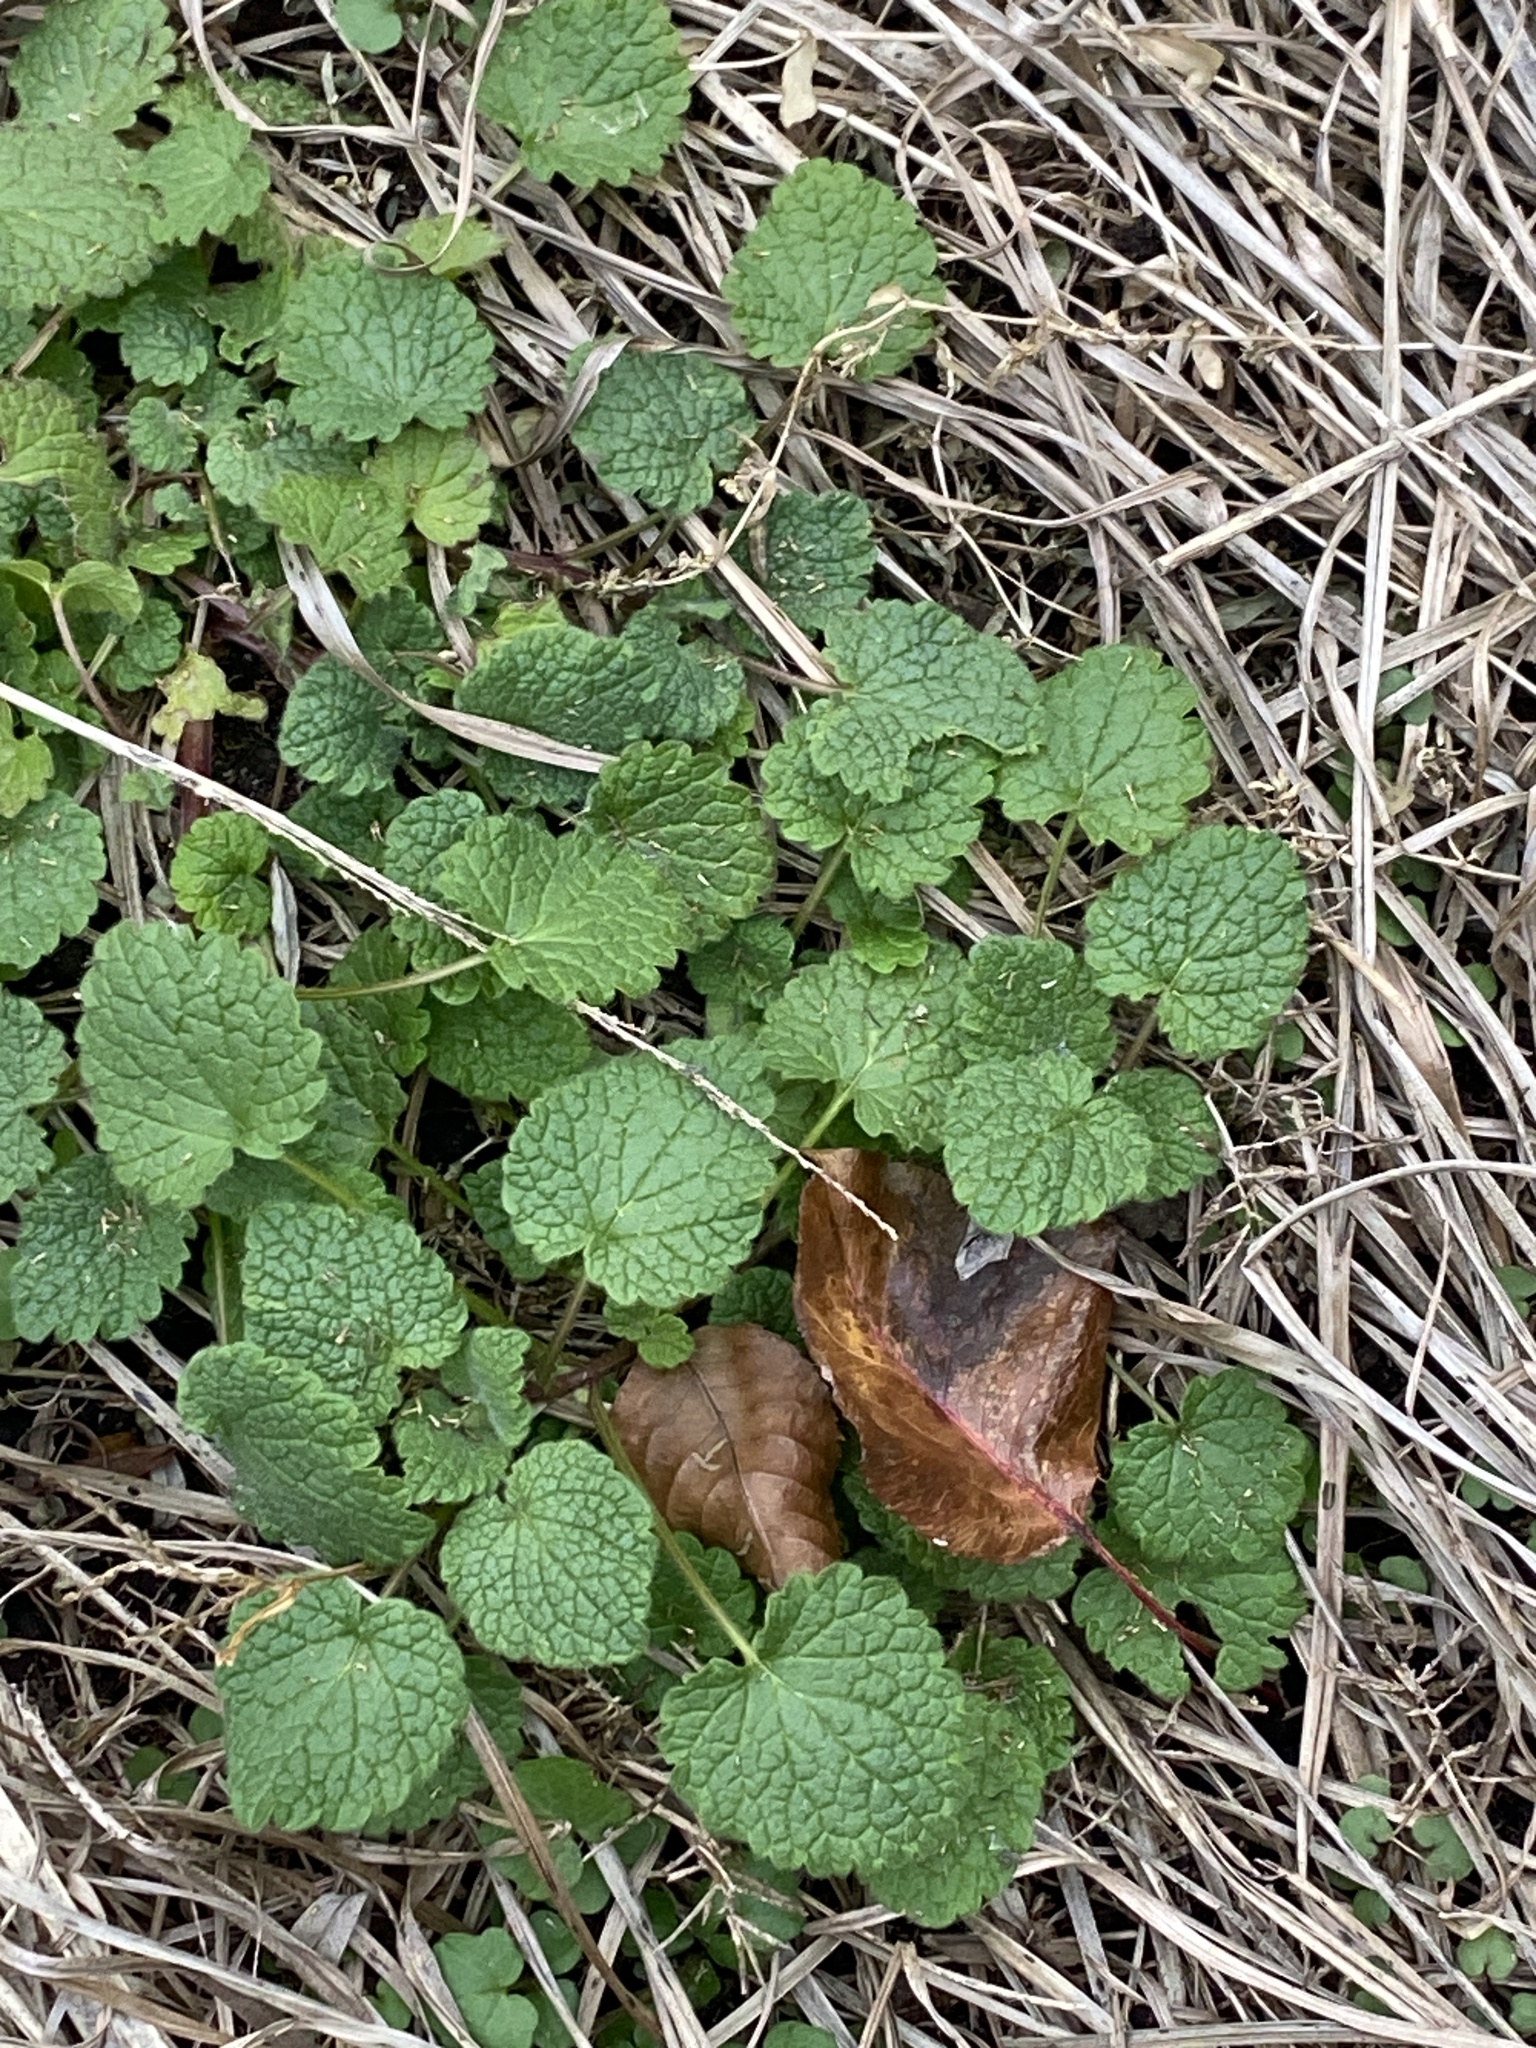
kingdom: Plantae
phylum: Tracheophyta
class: Magnoliopsida
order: Lamiales
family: Lamiaceae
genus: Lamium
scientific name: Lamium purpureum
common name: Red dead-nettle
